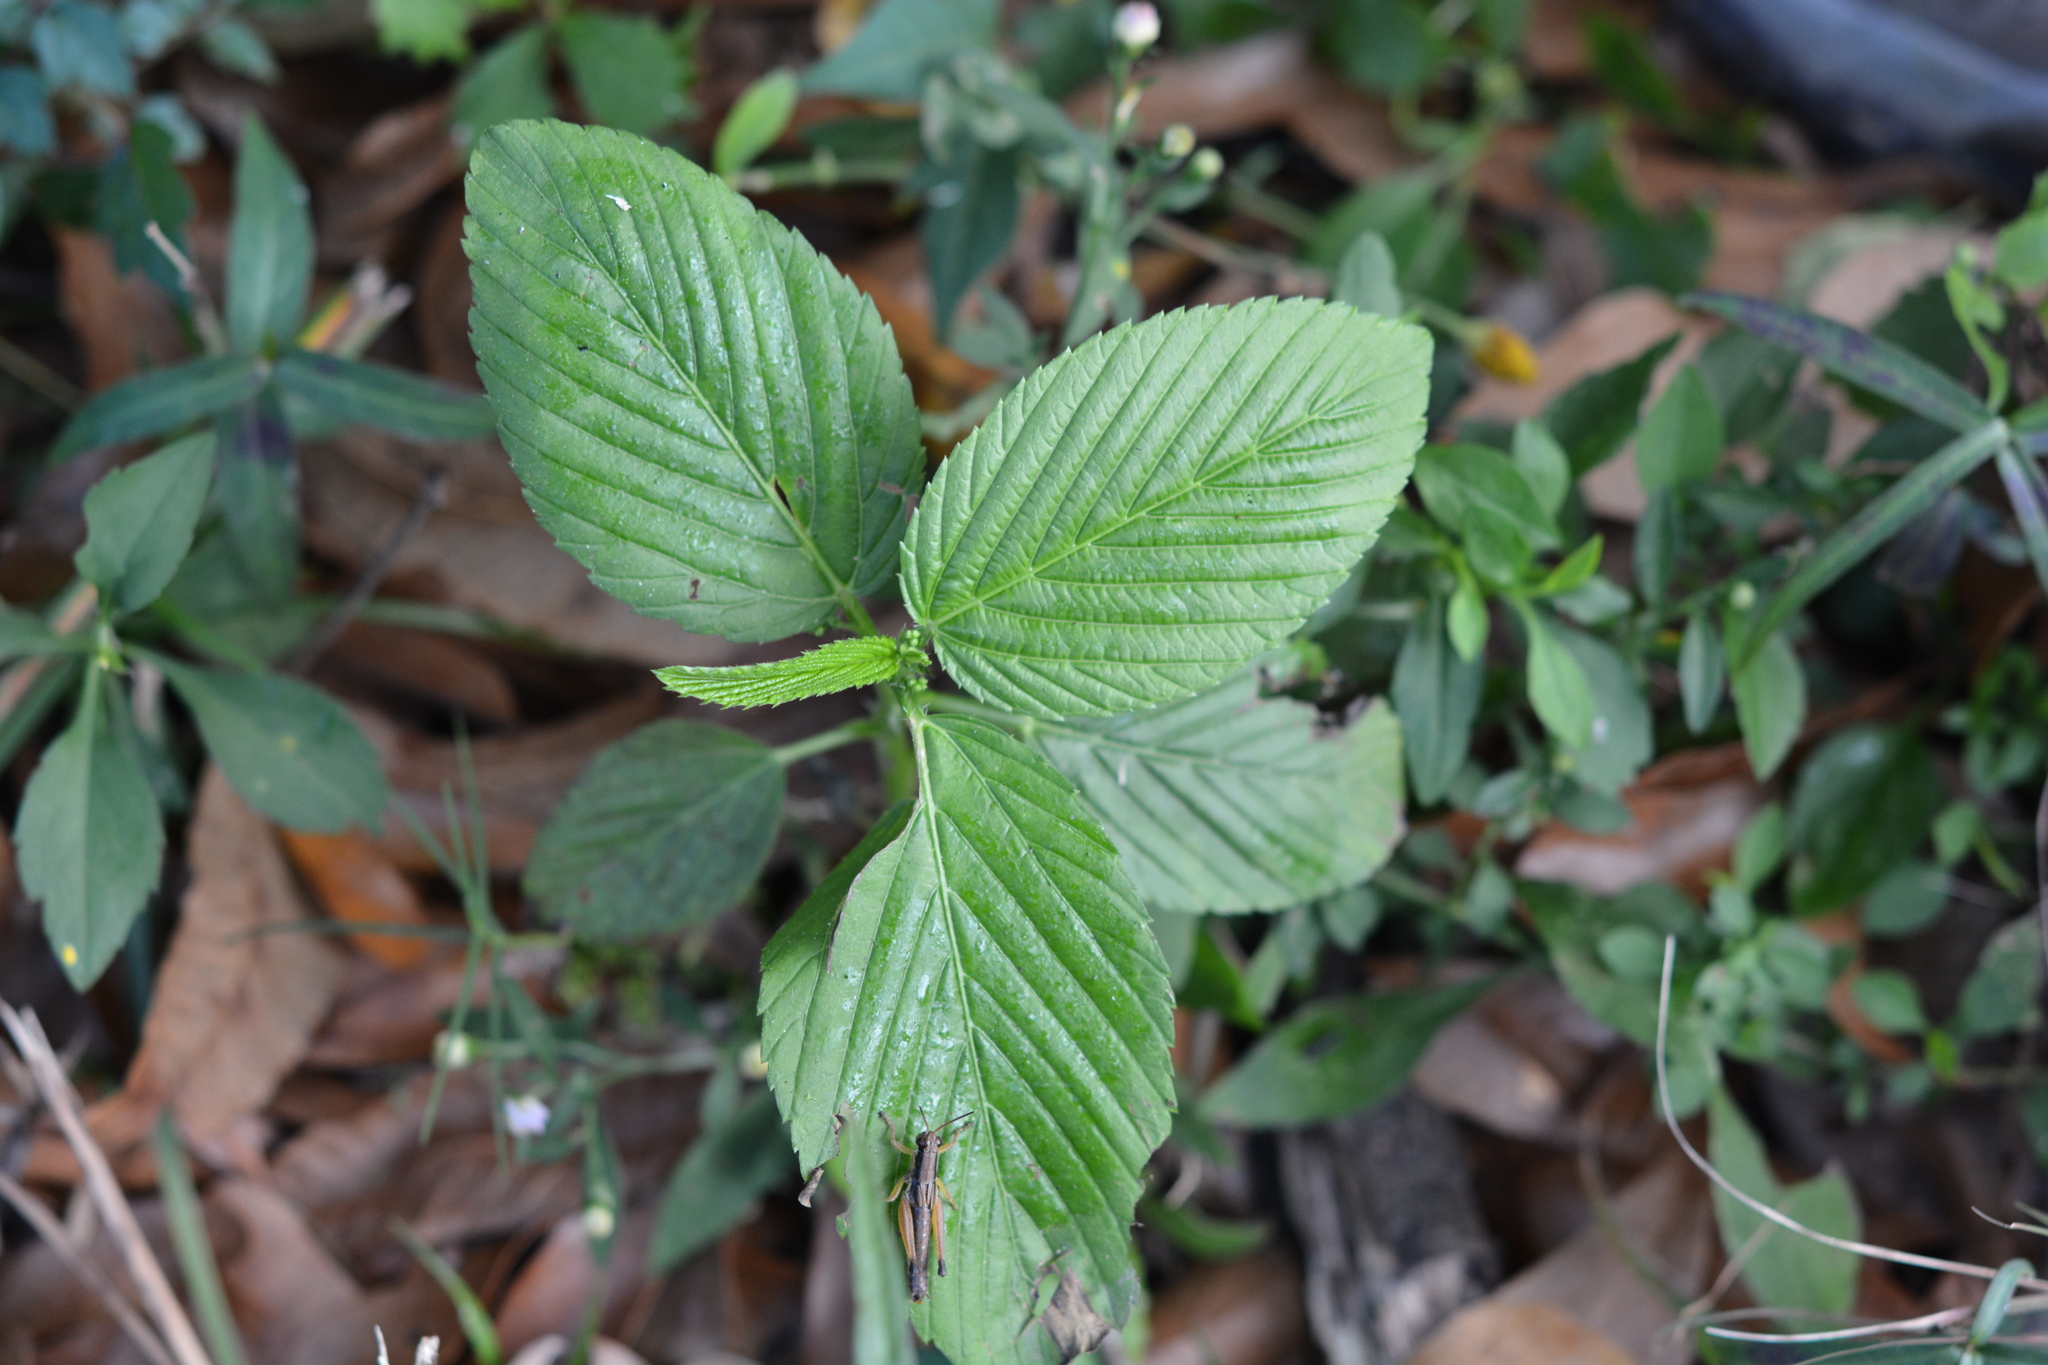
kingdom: Plantae
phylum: Tracheophyta
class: Magnoliopsida
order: Malpighiales
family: Euphorbiaceae
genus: Caperonia
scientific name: Caperonia palustris
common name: Sacatrapo
